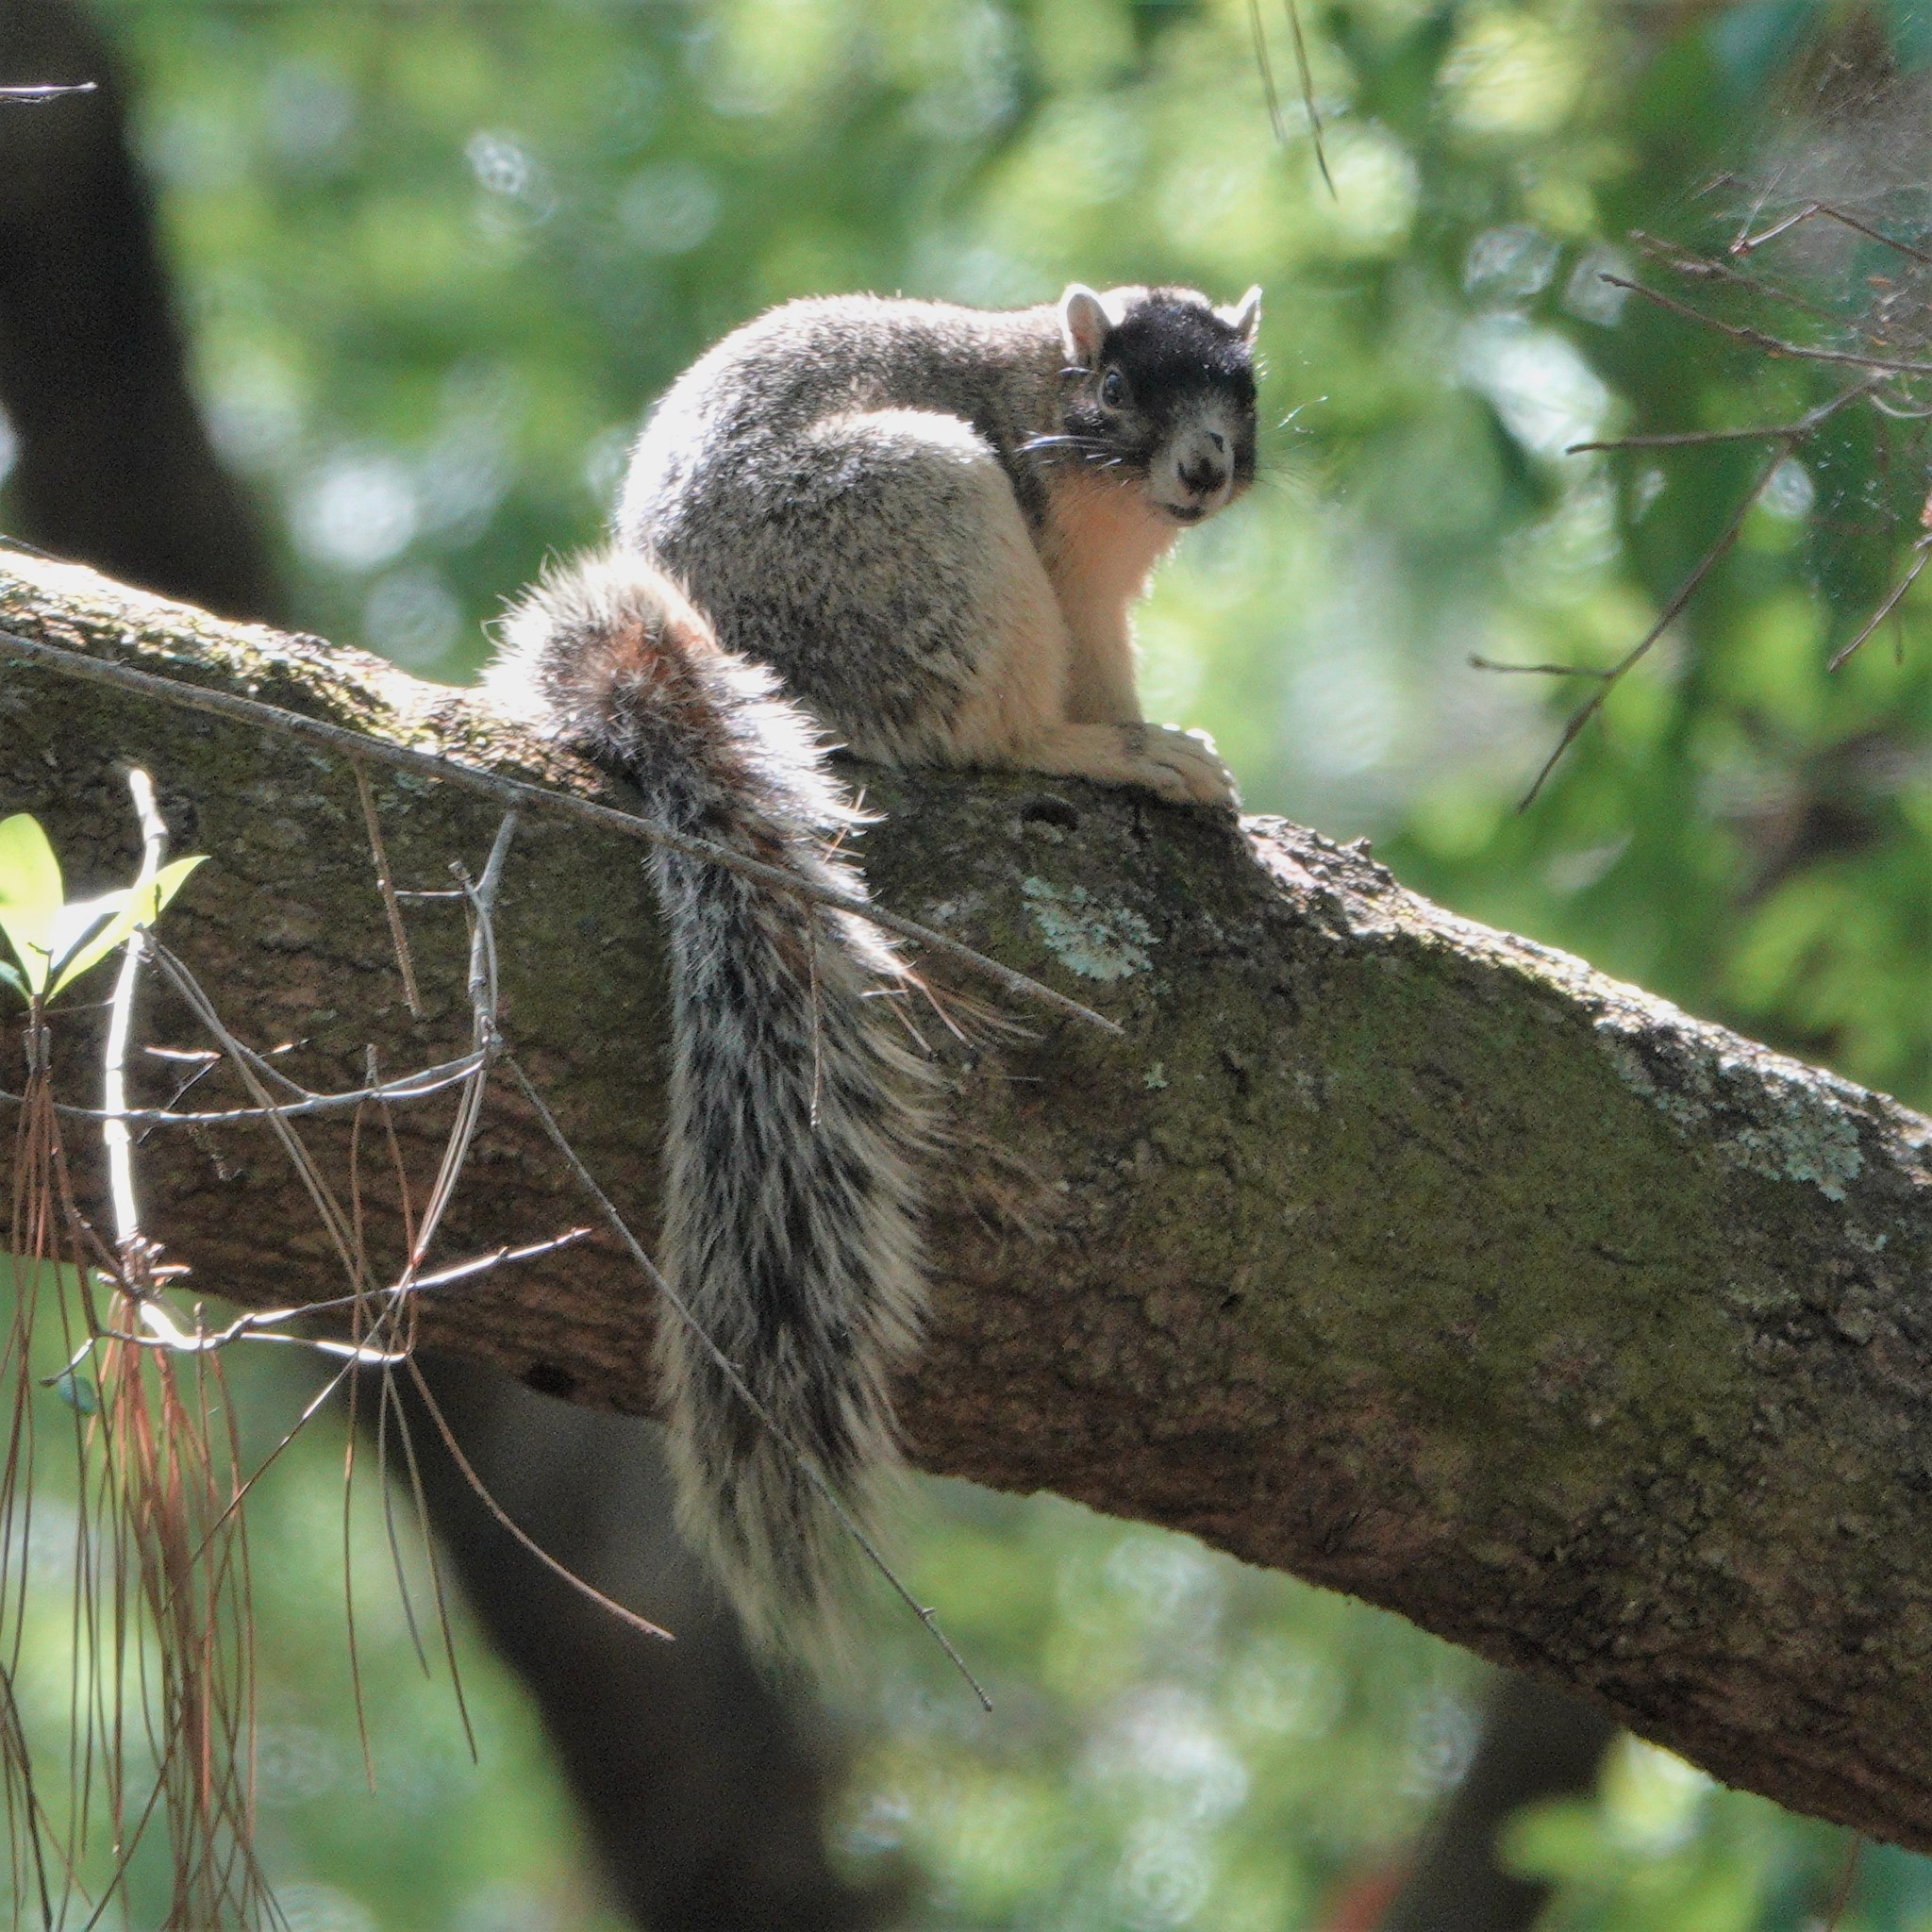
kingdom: Animalia
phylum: Chordata
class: Mammalia
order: Rodentia
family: Sciuridae
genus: Sciurus
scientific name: Sciurus niger
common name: Fox squirrel
